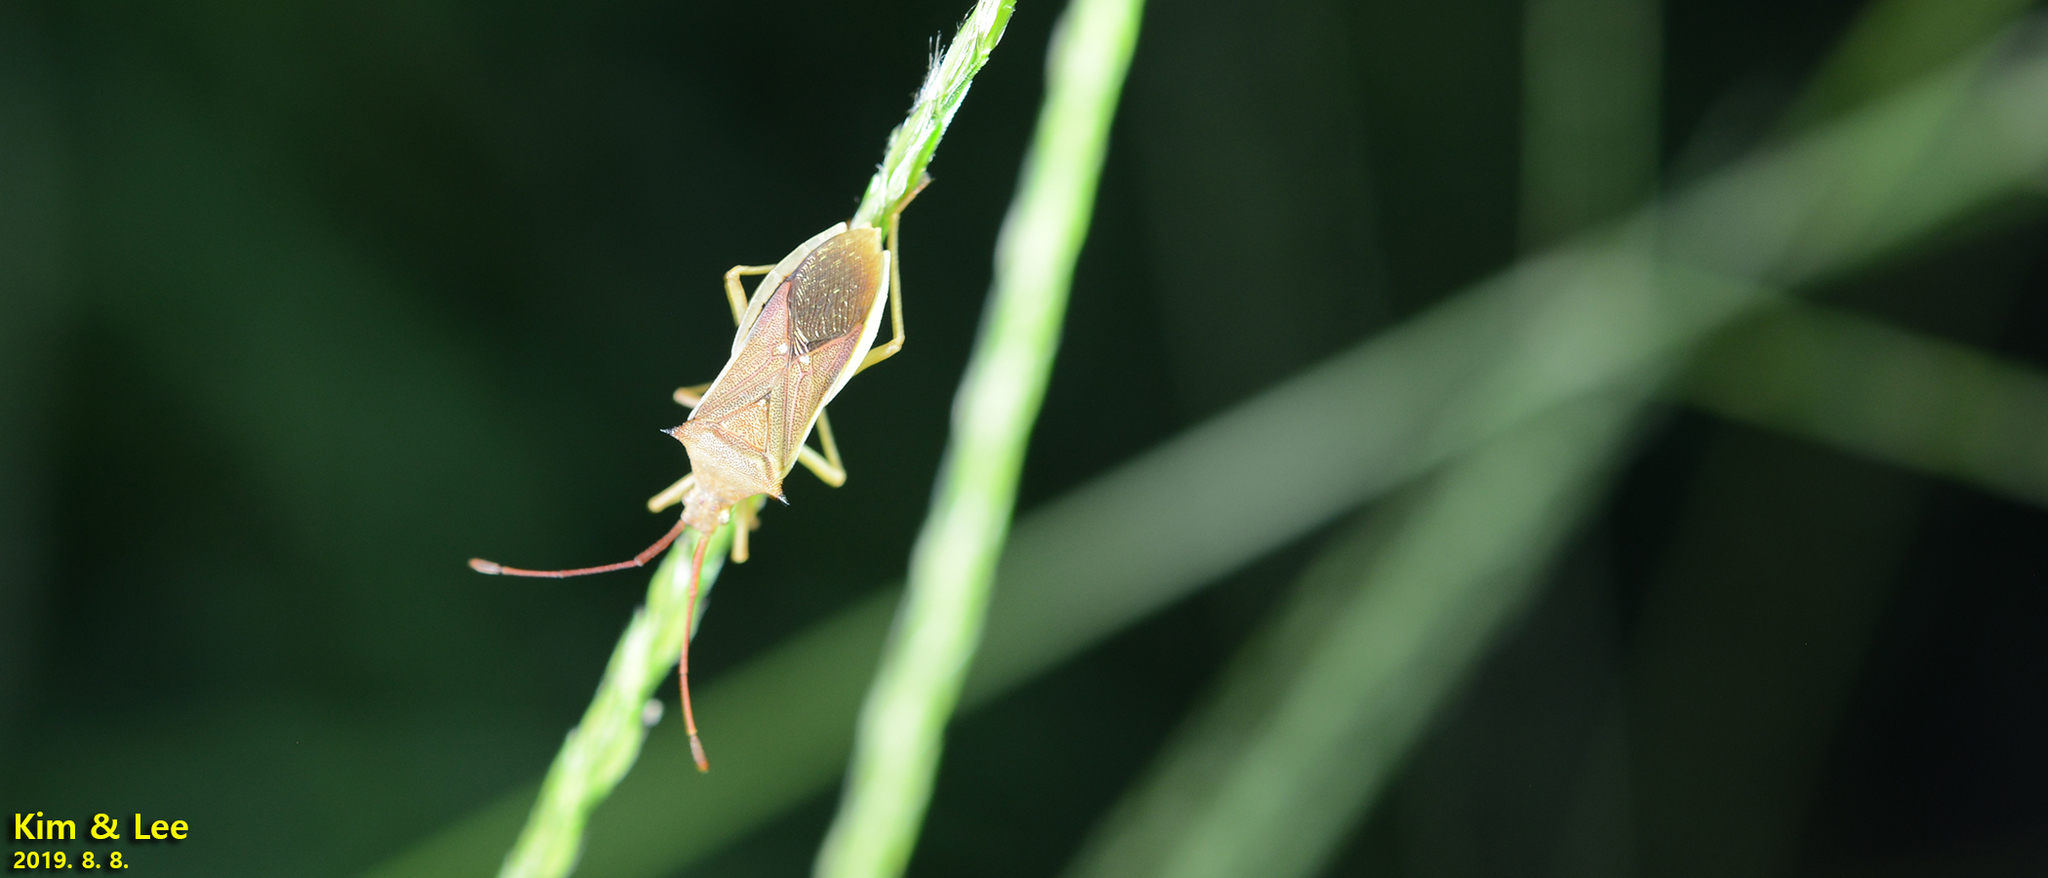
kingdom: Animalia
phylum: Arthropoda
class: Insecta
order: Hemiptera
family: Coreidae
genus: Cletus
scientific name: Cletus punctiger
